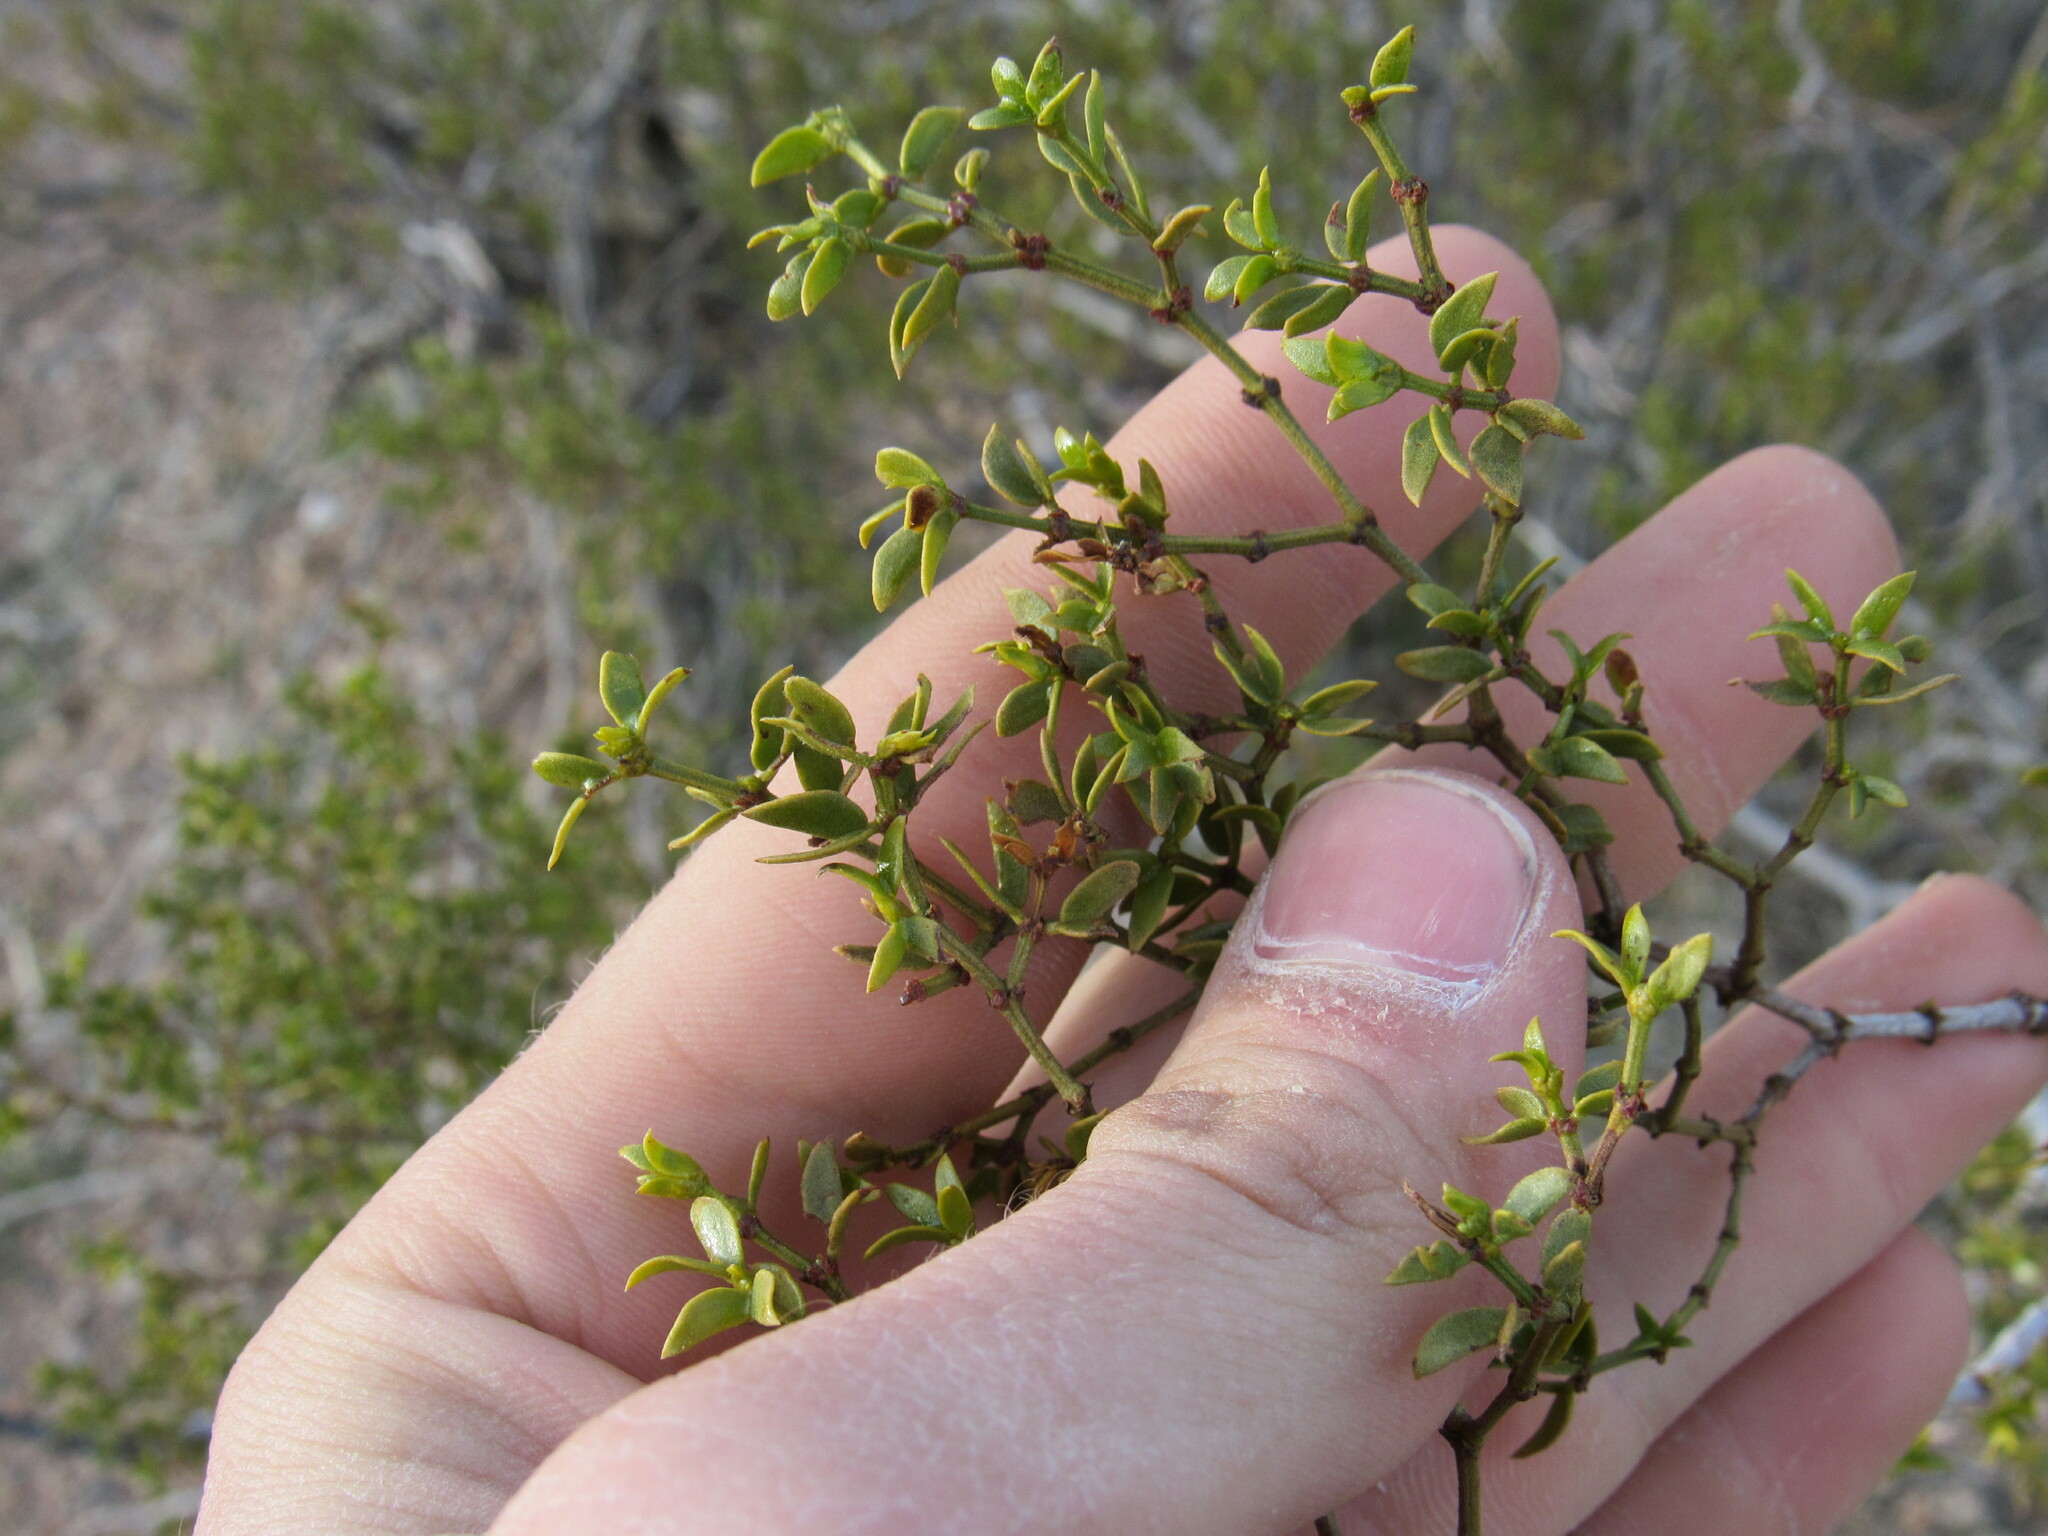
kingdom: Plantae
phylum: Tracheophyta
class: Magnoliopsida
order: Zygophyllales
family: Zygophyllaceae
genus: Larrea
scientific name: Larrea tridentata
